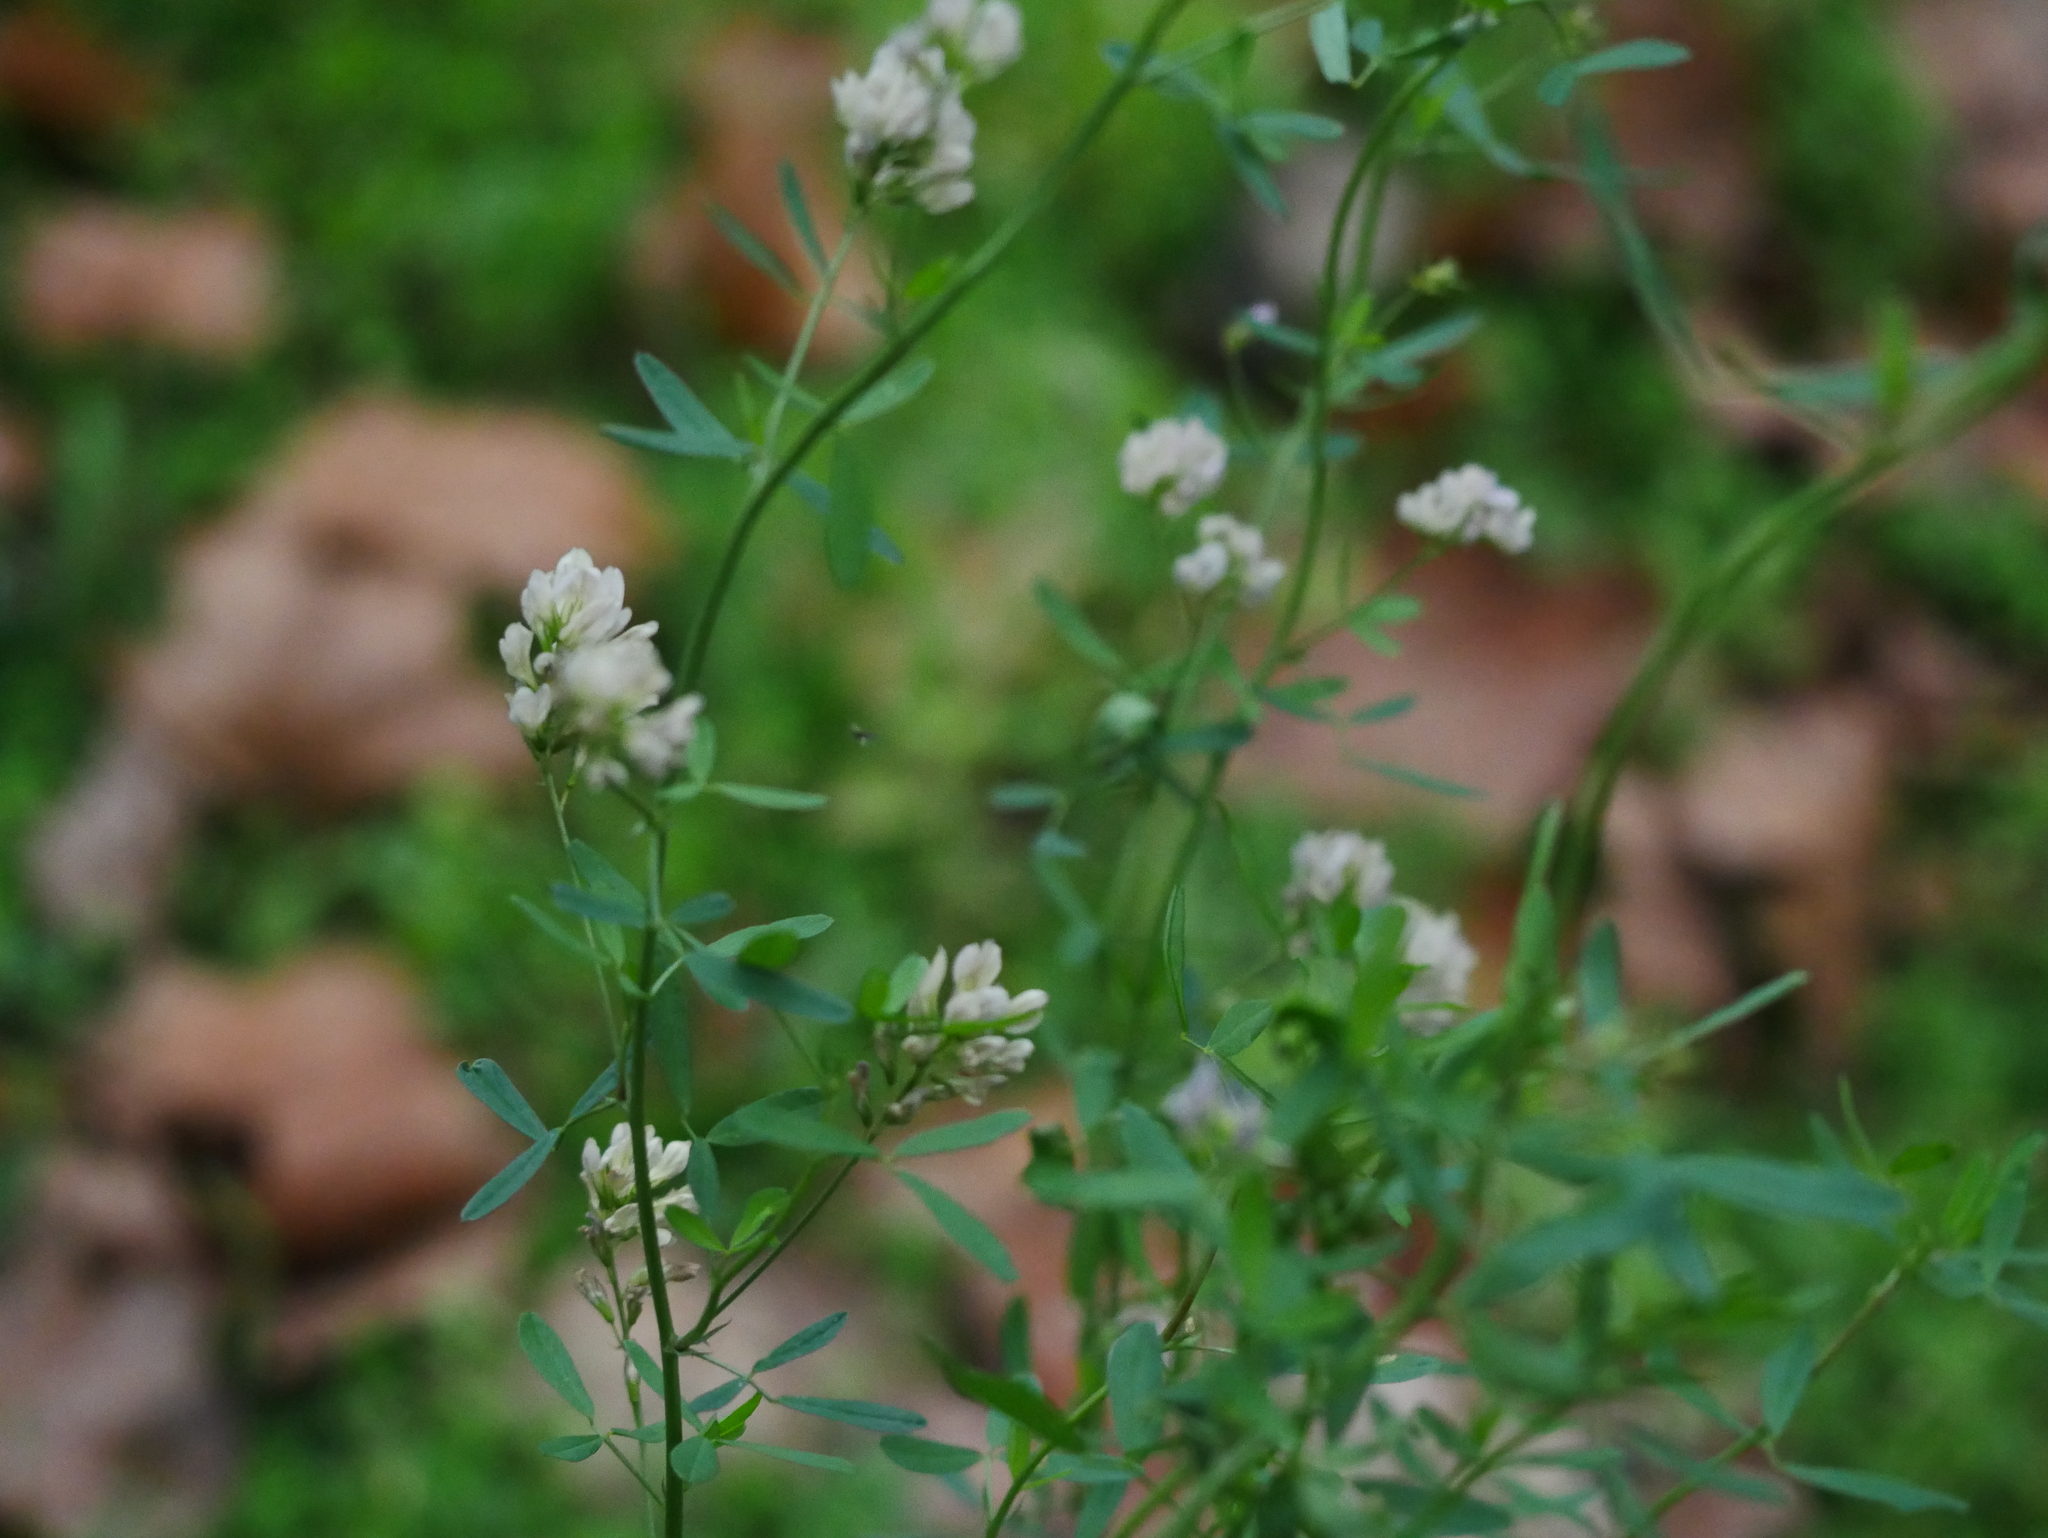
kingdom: Plantae
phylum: Tracheophyta
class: Magnoliopsida
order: Fabales
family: Fabaceae
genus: Medicago
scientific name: Medicago varia
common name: Sand lucerne
